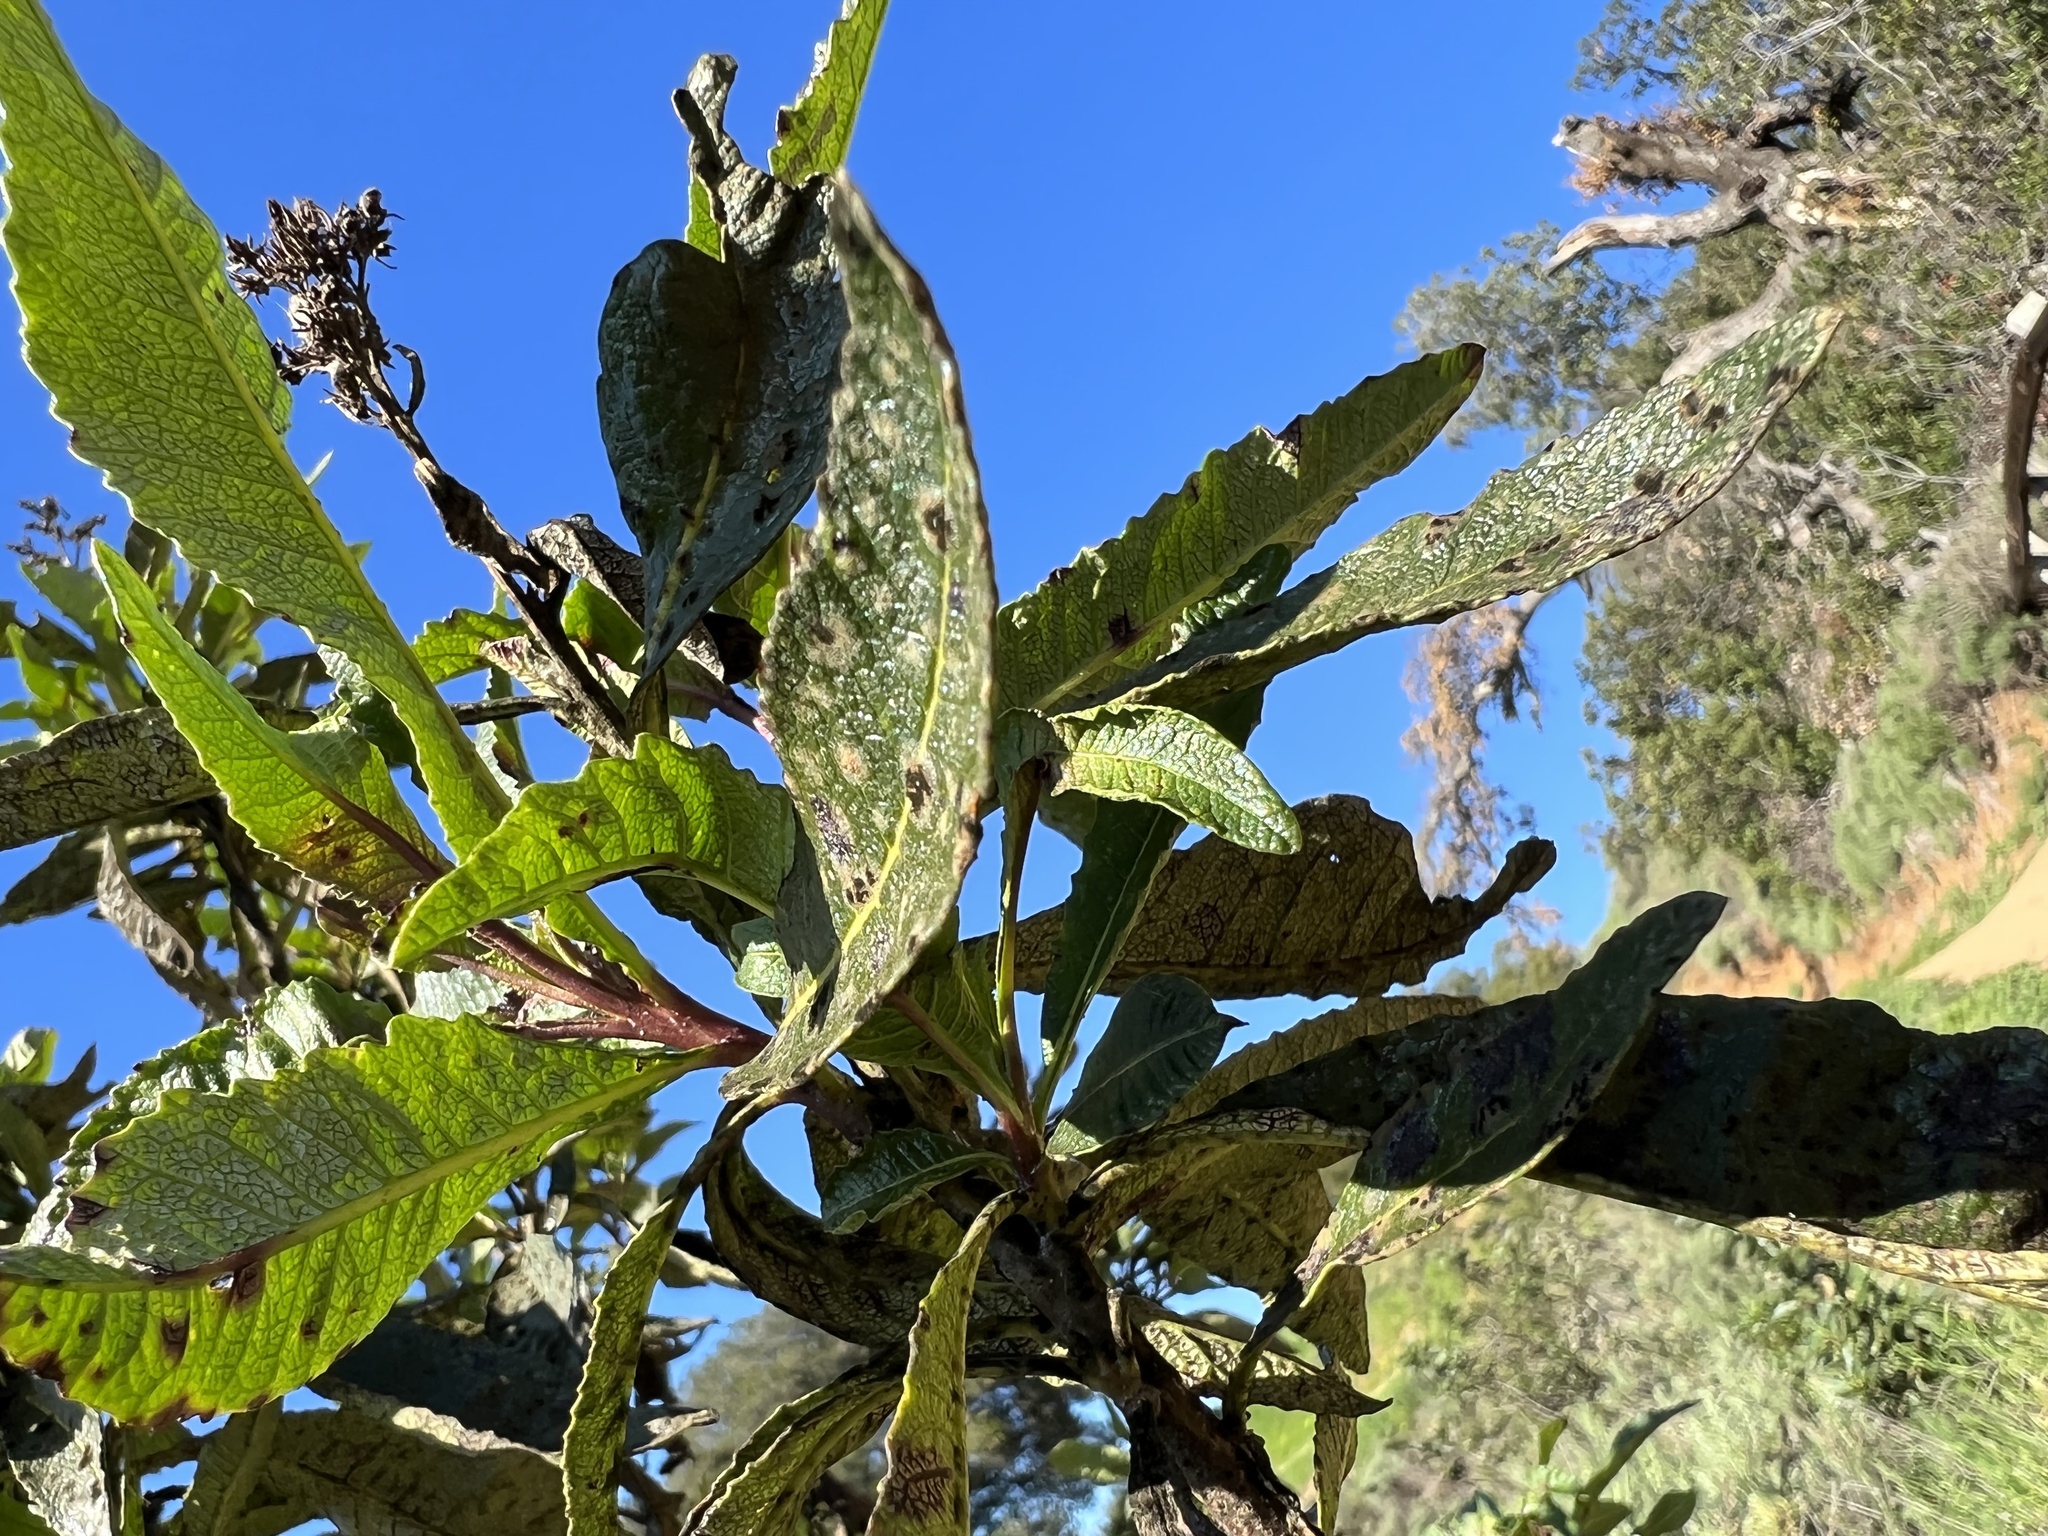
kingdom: Plantae
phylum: Tracheophyta
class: Magnoliopsida
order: Boraginales
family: Namaceae
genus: Eriodictyon
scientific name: Eriodictyon californicum
